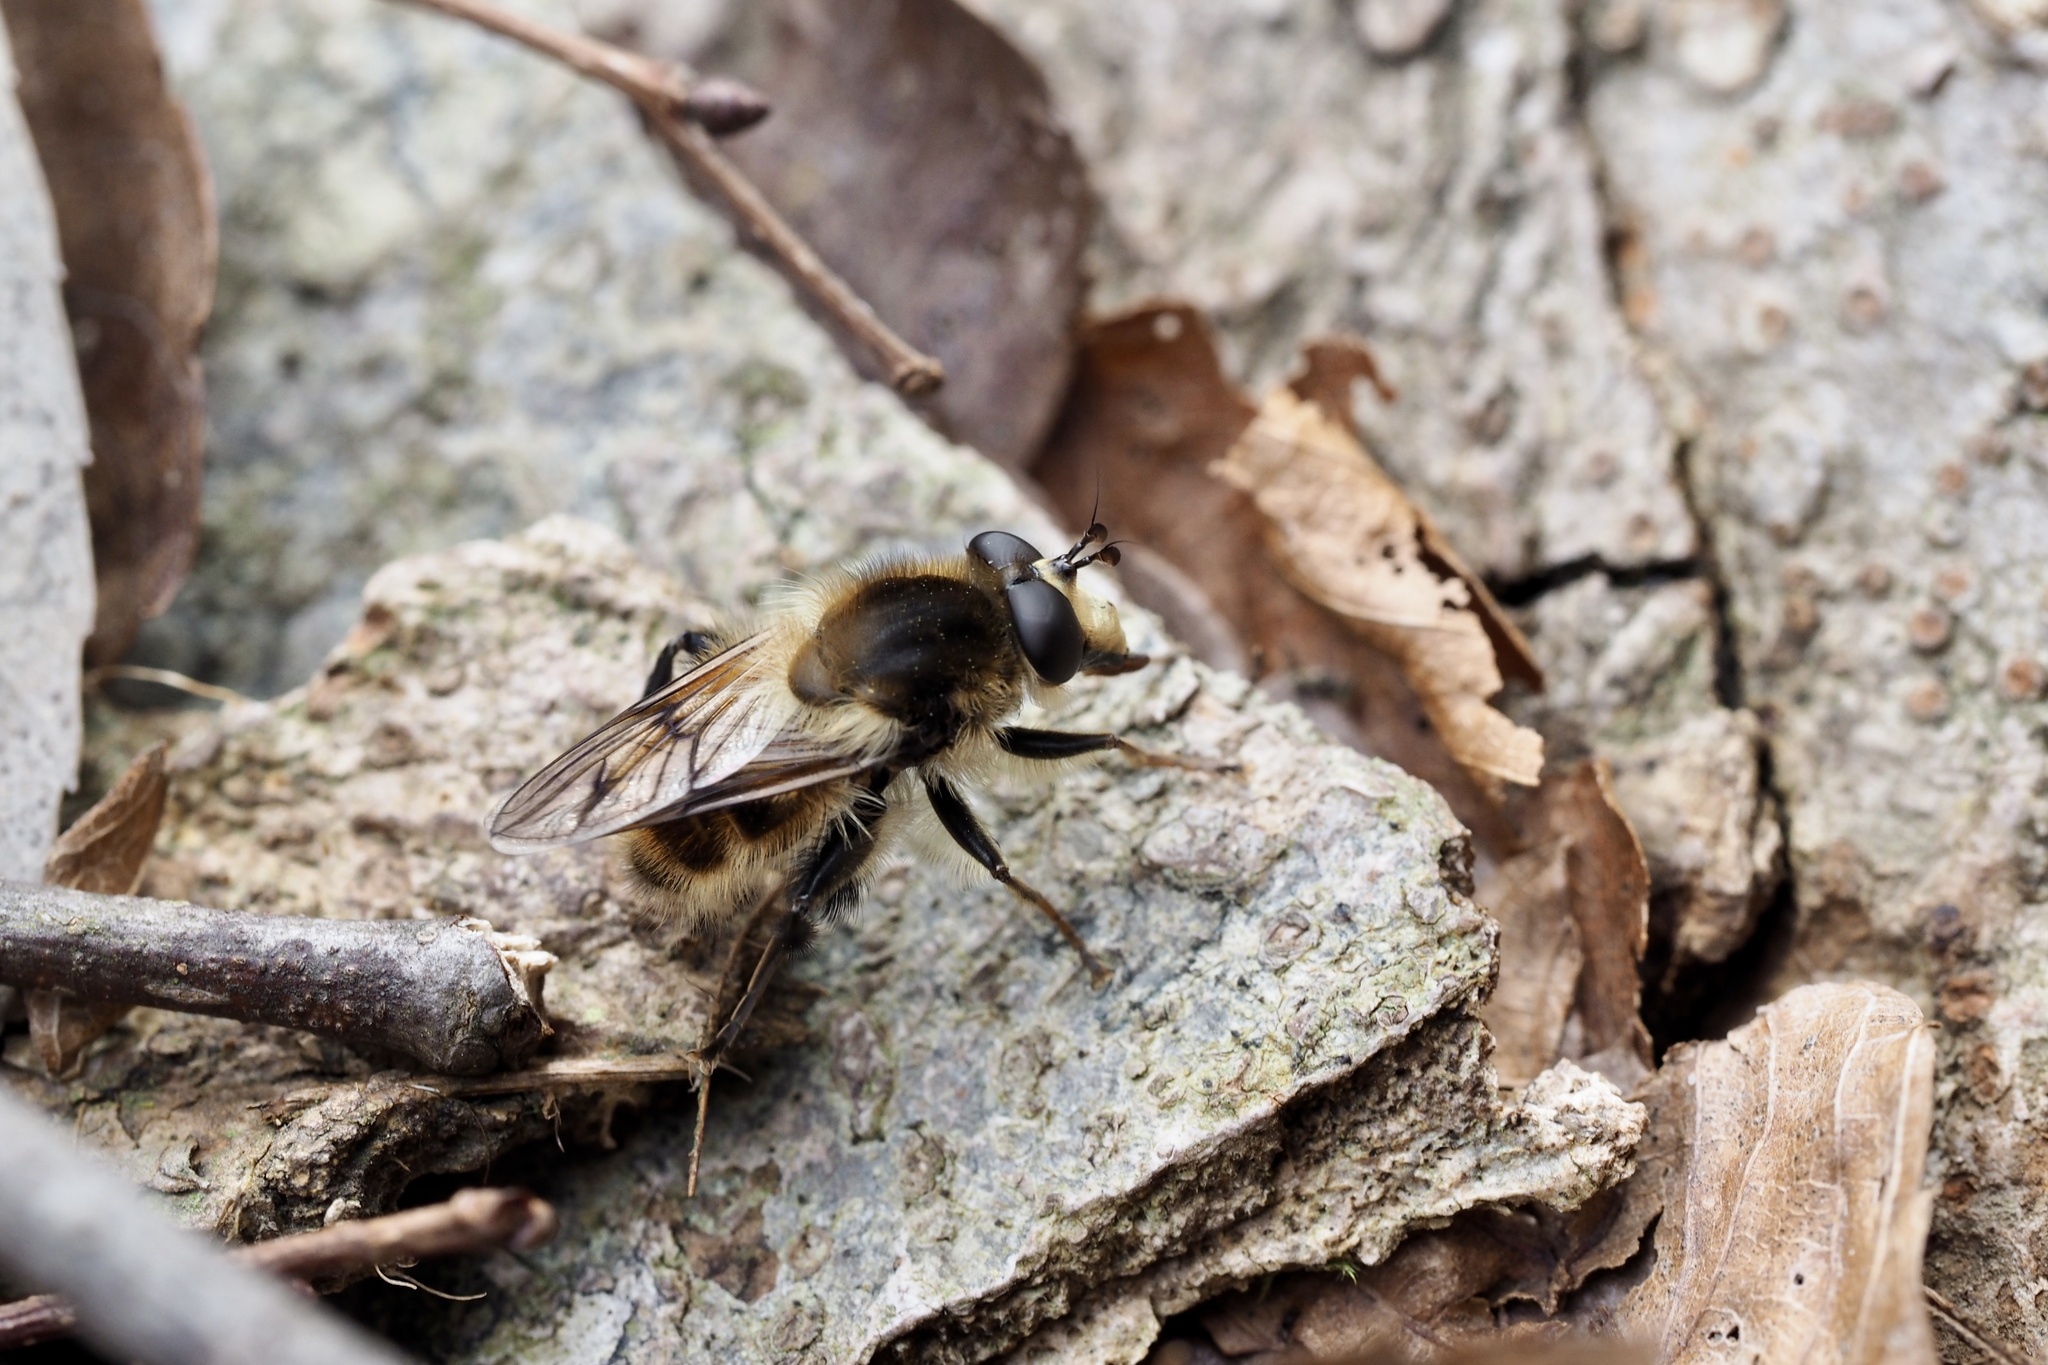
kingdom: Animalia
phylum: Arthropoda
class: Insecta
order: Diptera
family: Syrphidae
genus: Criorhina
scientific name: Criorhina takaoensis
